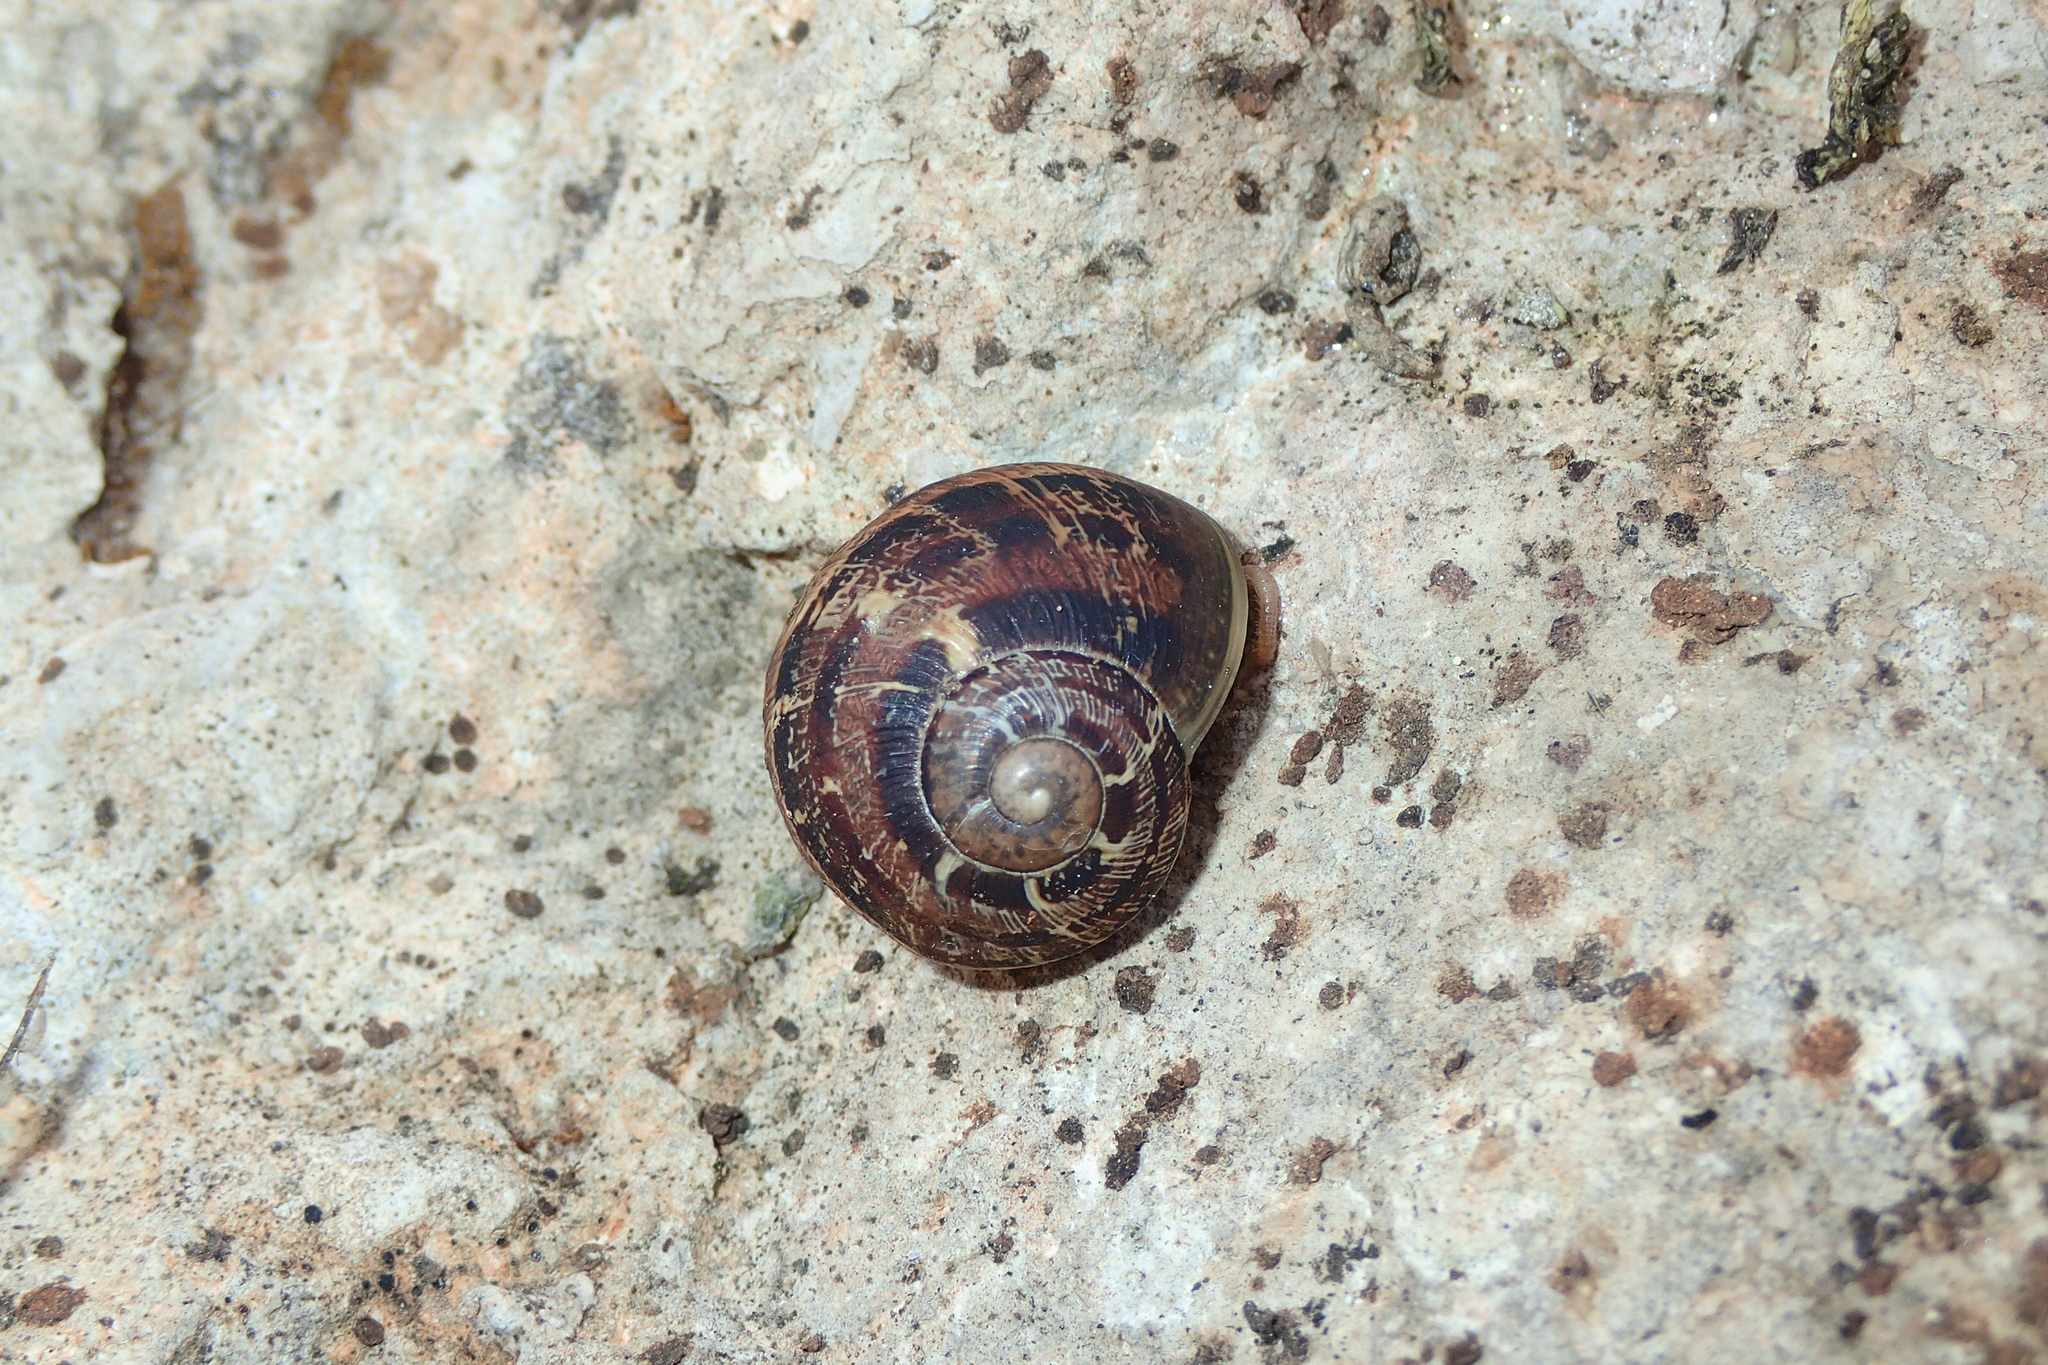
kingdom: Animalia
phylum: Mollusca
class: Gastropoda
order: Stylommatophora
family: Helicidae
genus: Cornu
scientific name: Cornu aspersum
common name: Brown garden snail
